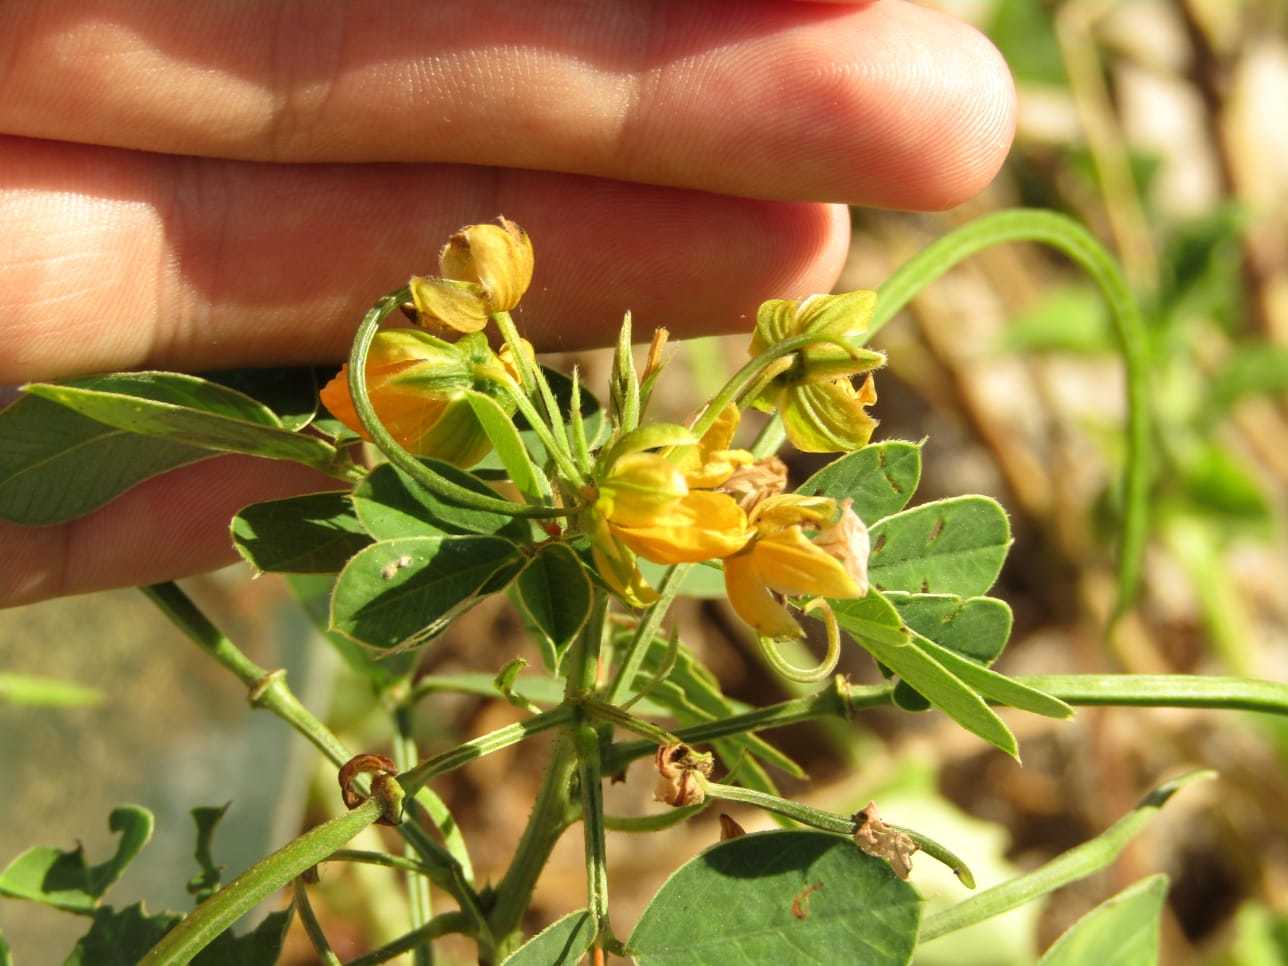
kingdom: Plantae
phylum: Tracheophyta
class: Magnoliopsida
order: Fabales
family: Fabaceae
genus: Senna
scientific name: Senna obtusifolia
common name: Java-bean
